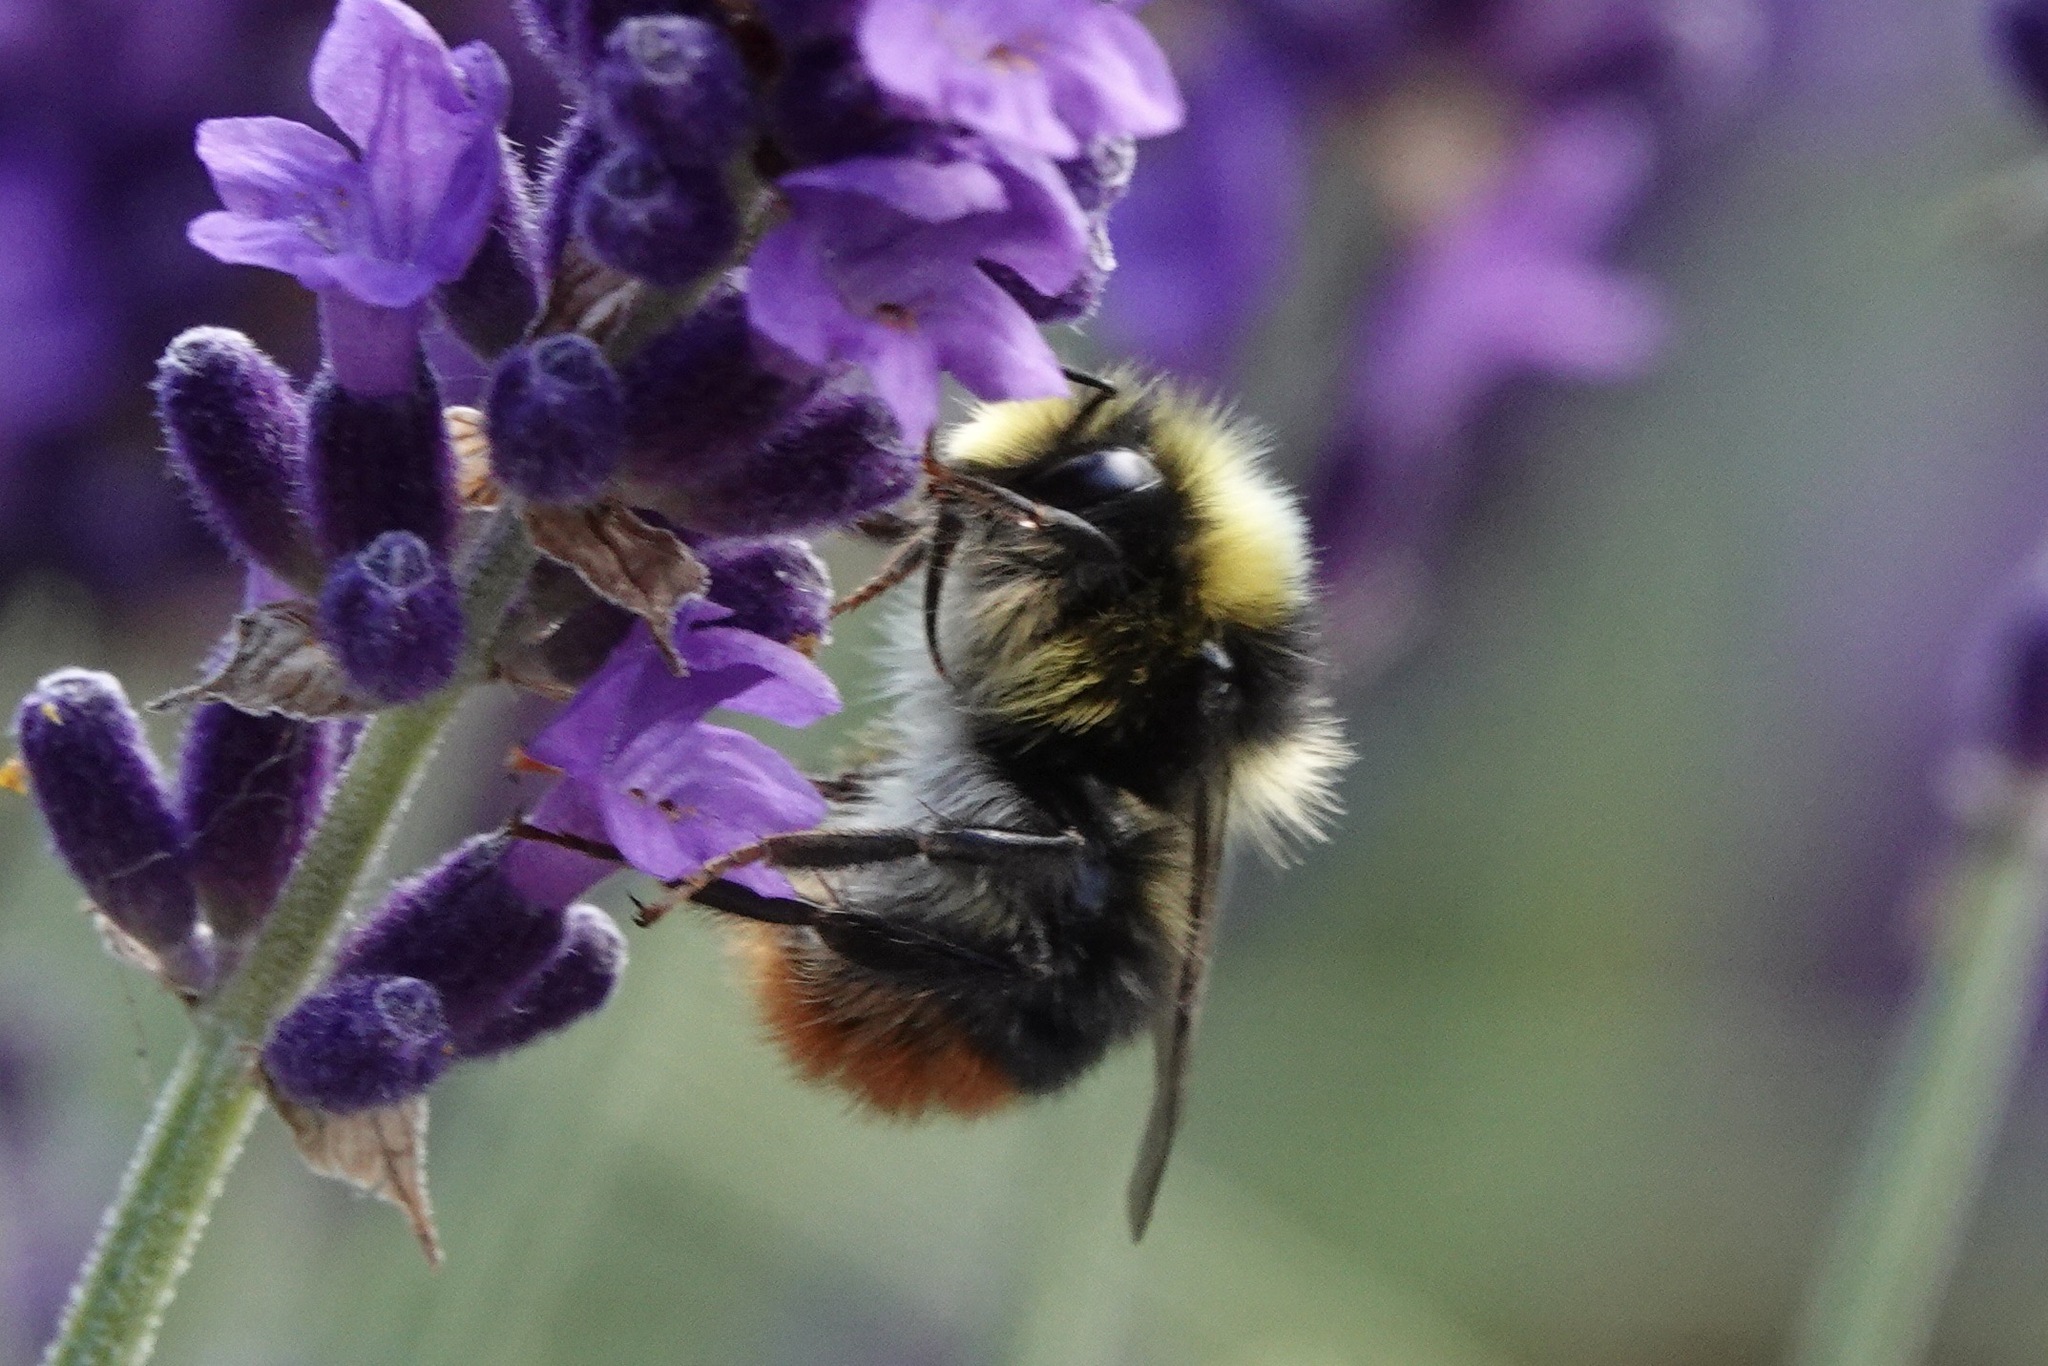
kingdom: Animalia
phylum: Arthropoda
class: Insecta
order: Hymenoptera
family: Apidae
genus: Bombus
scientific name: Bombus lapidarius
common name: Large red-tailed humble-bee
